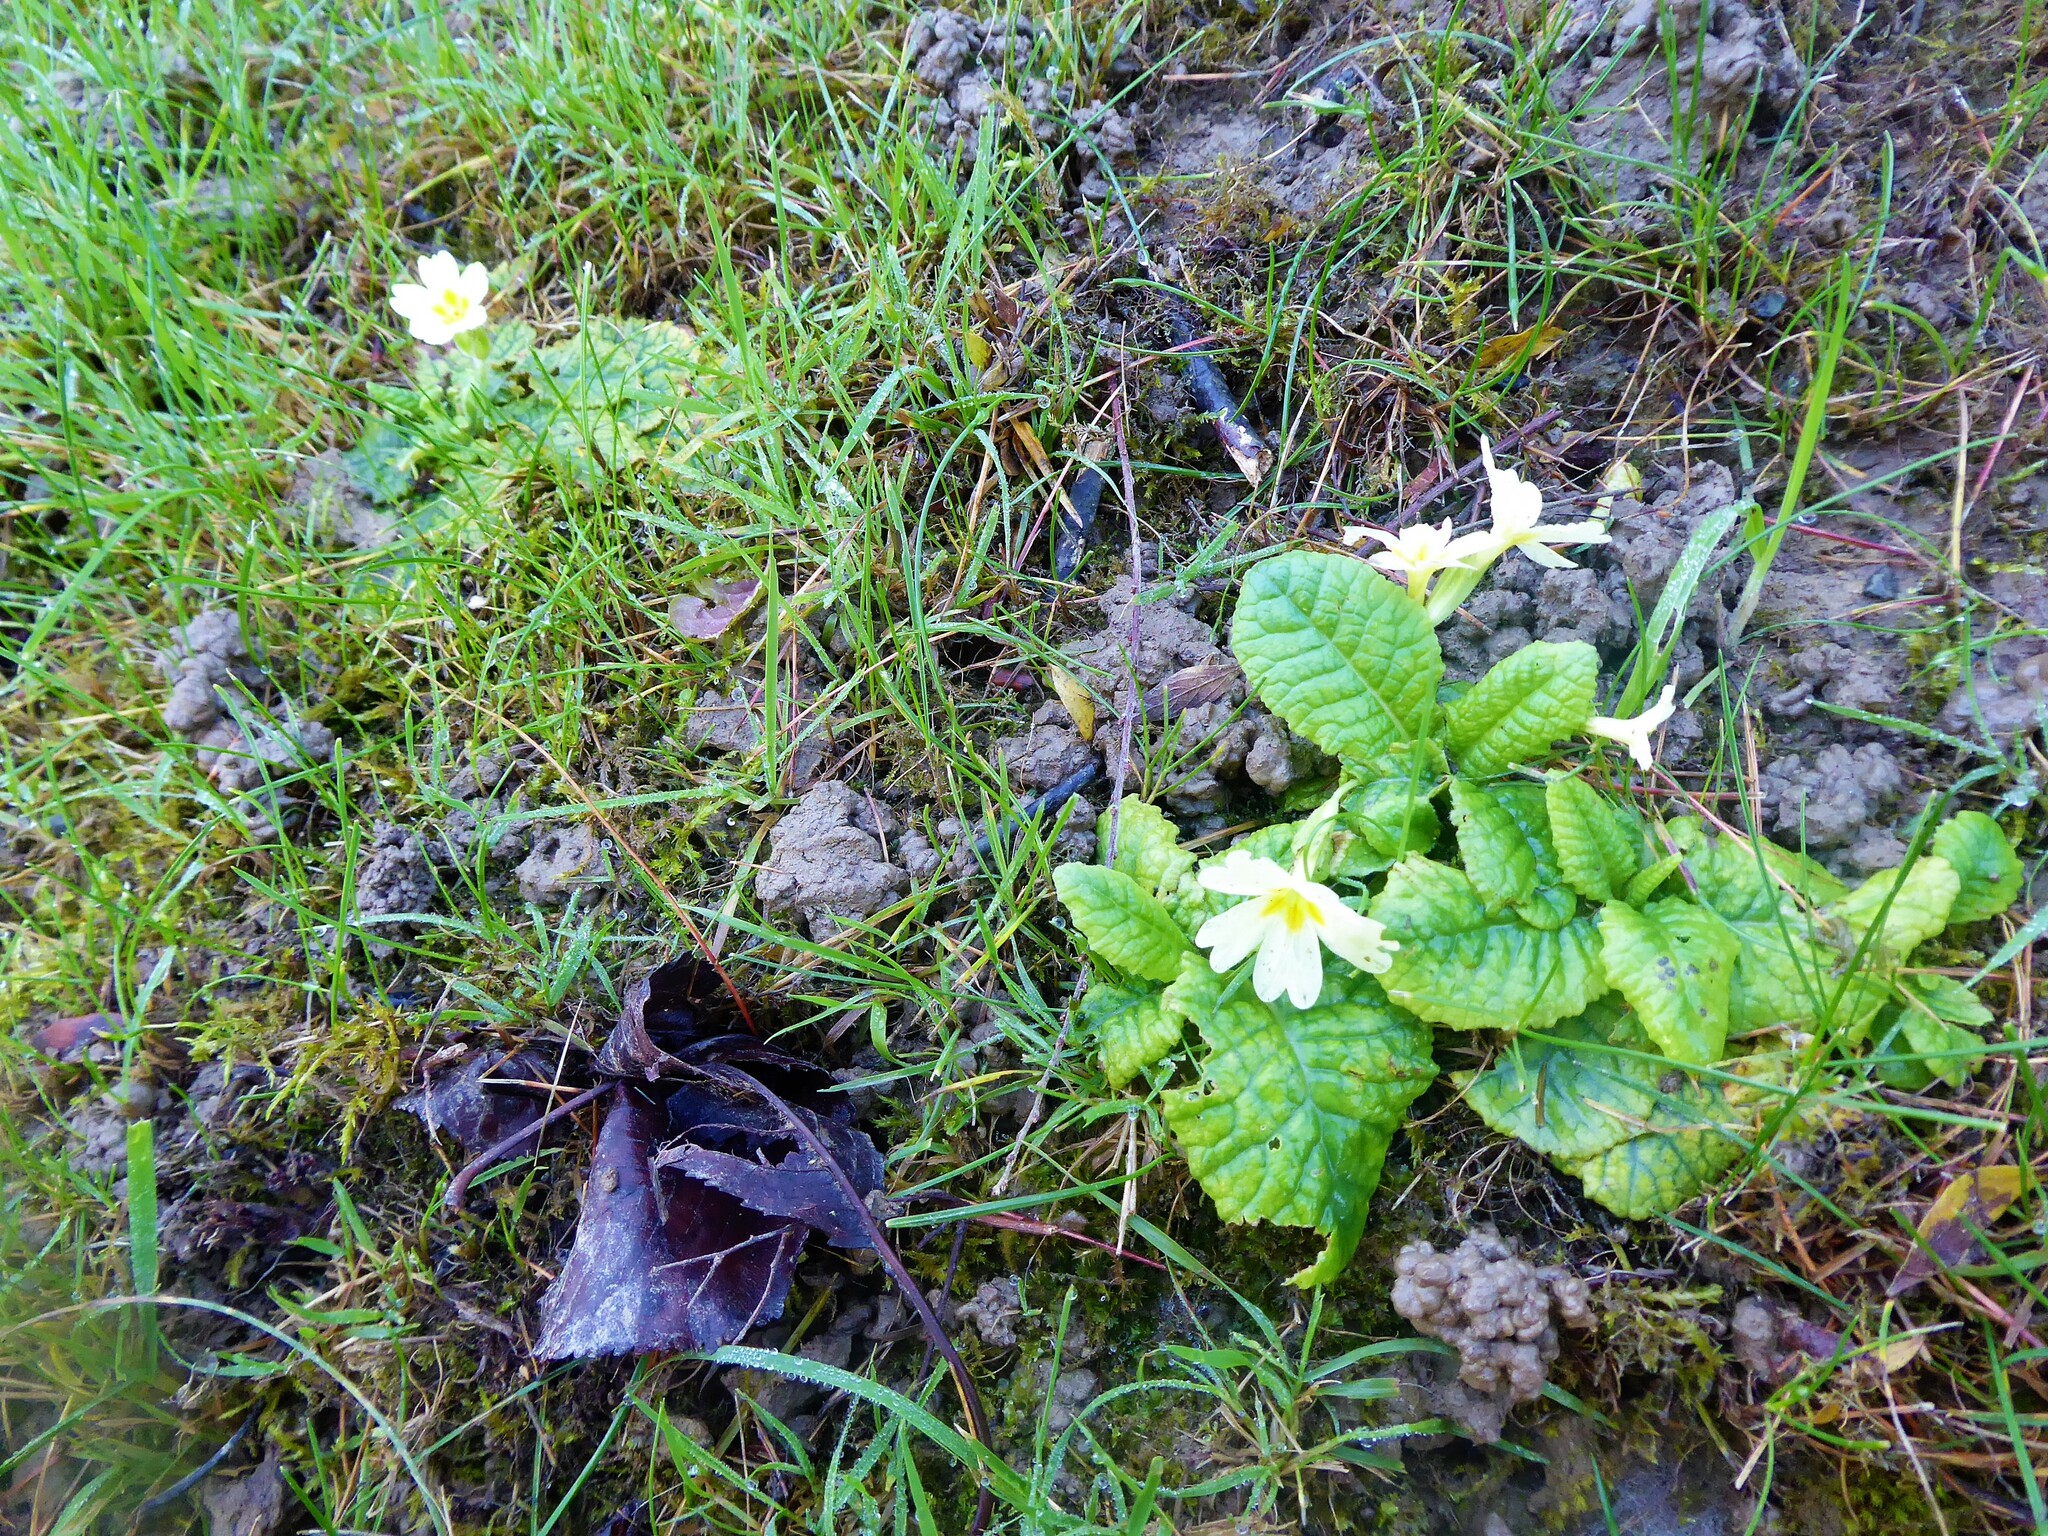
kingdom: Plantae
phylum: Tracheophyta
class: Magnoliopsida
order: Ericales
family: Primulaceae
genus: Primula
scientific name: Primula vulgaris
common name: Primrose
